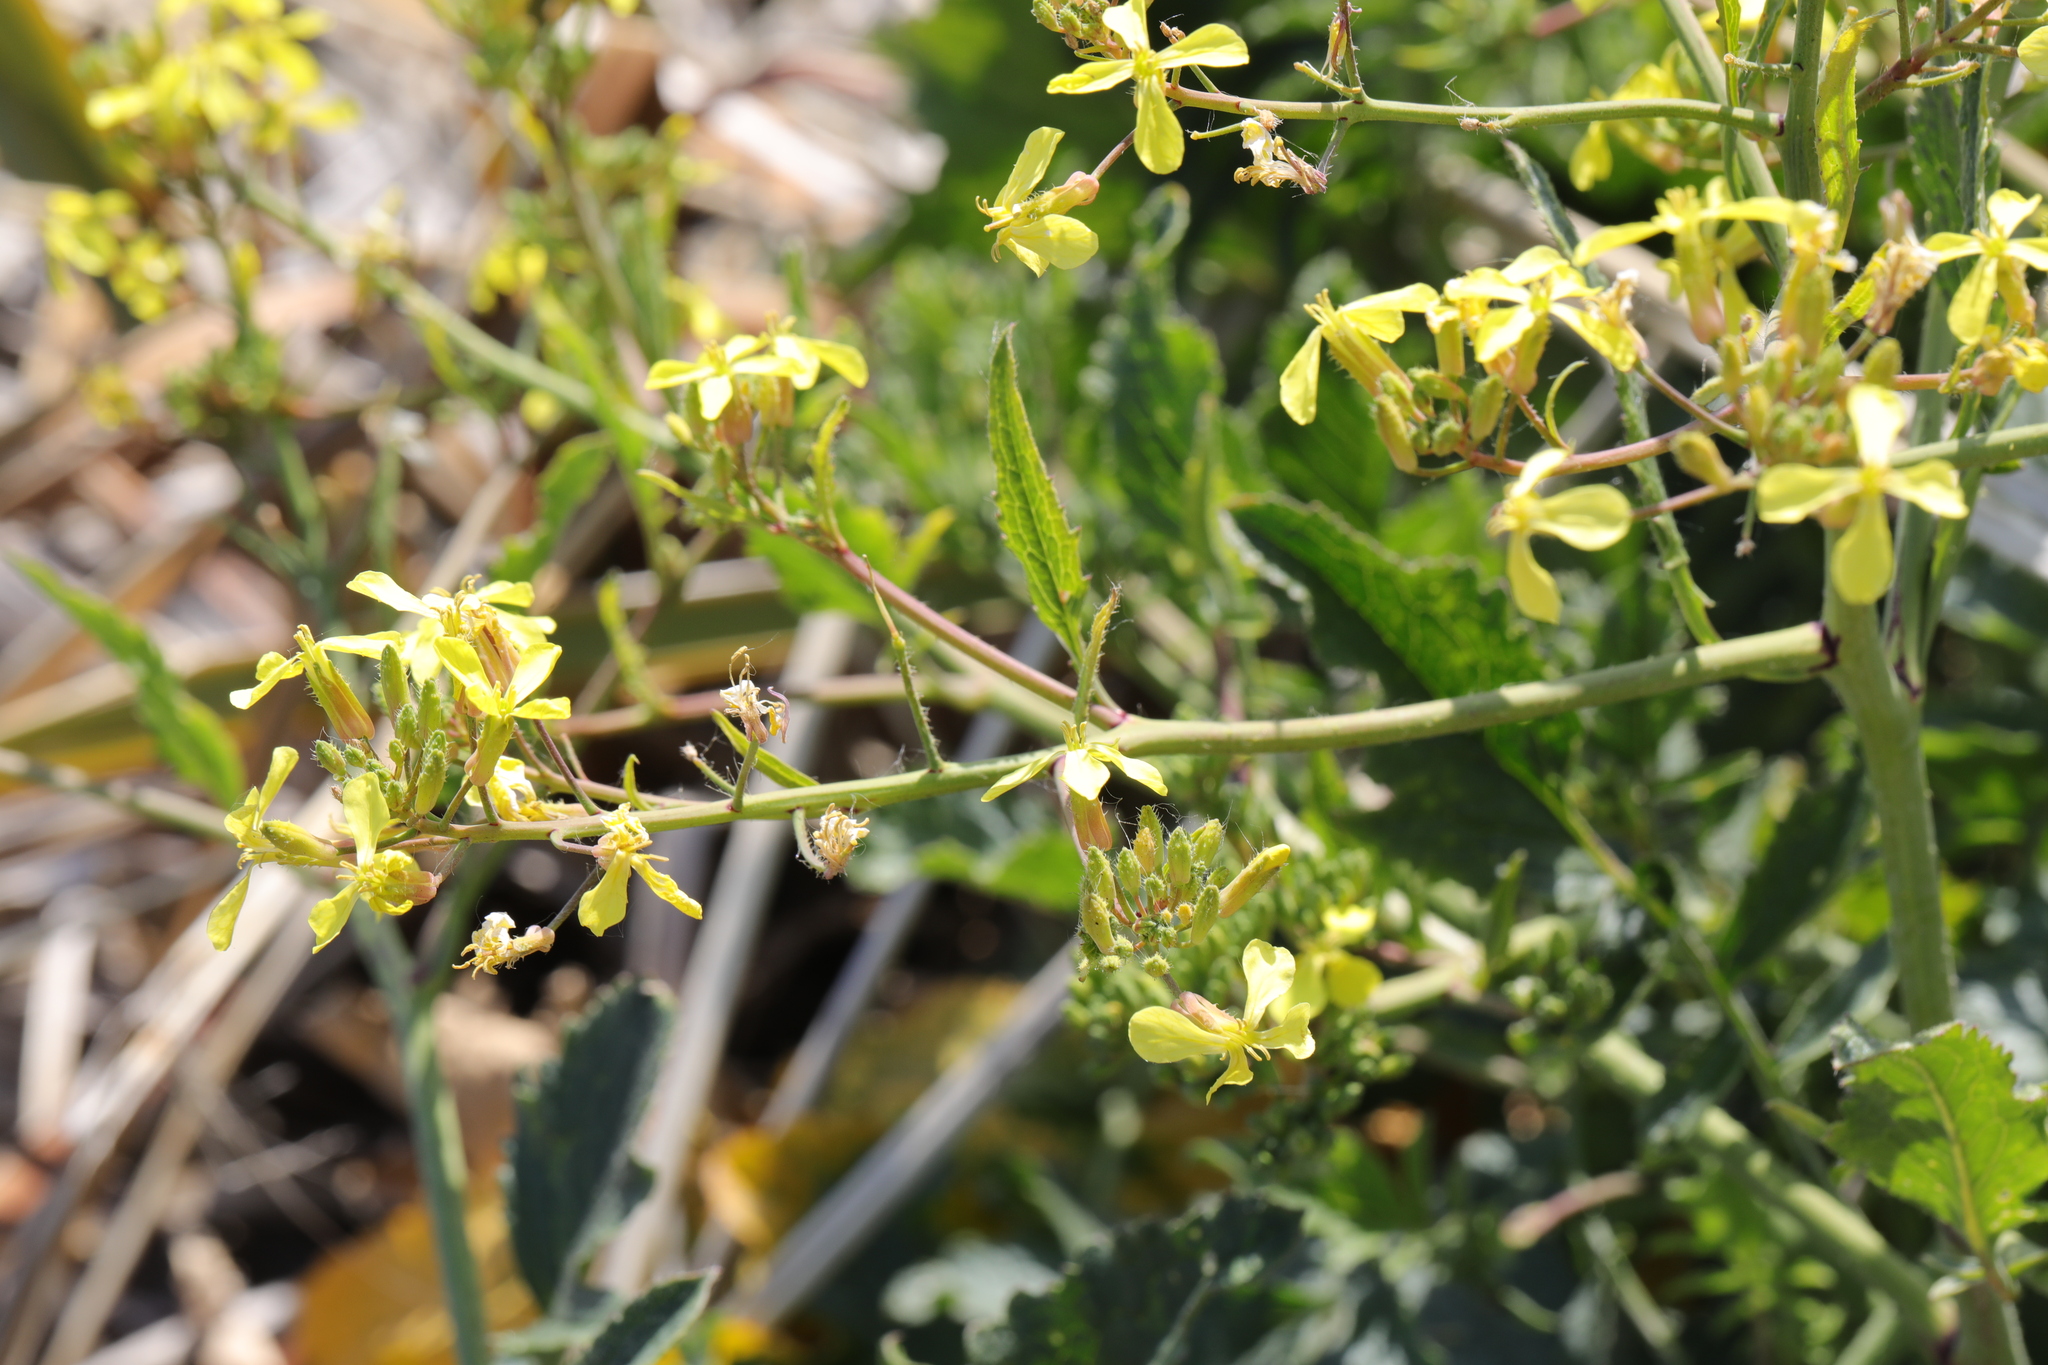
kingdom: Plantae
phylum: Tracheophyta
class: Magnoliopsida
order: Brassicales
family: Brassicaceae
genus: Raphanus
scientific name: Raphanus raphanistrum
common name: Wild radish
